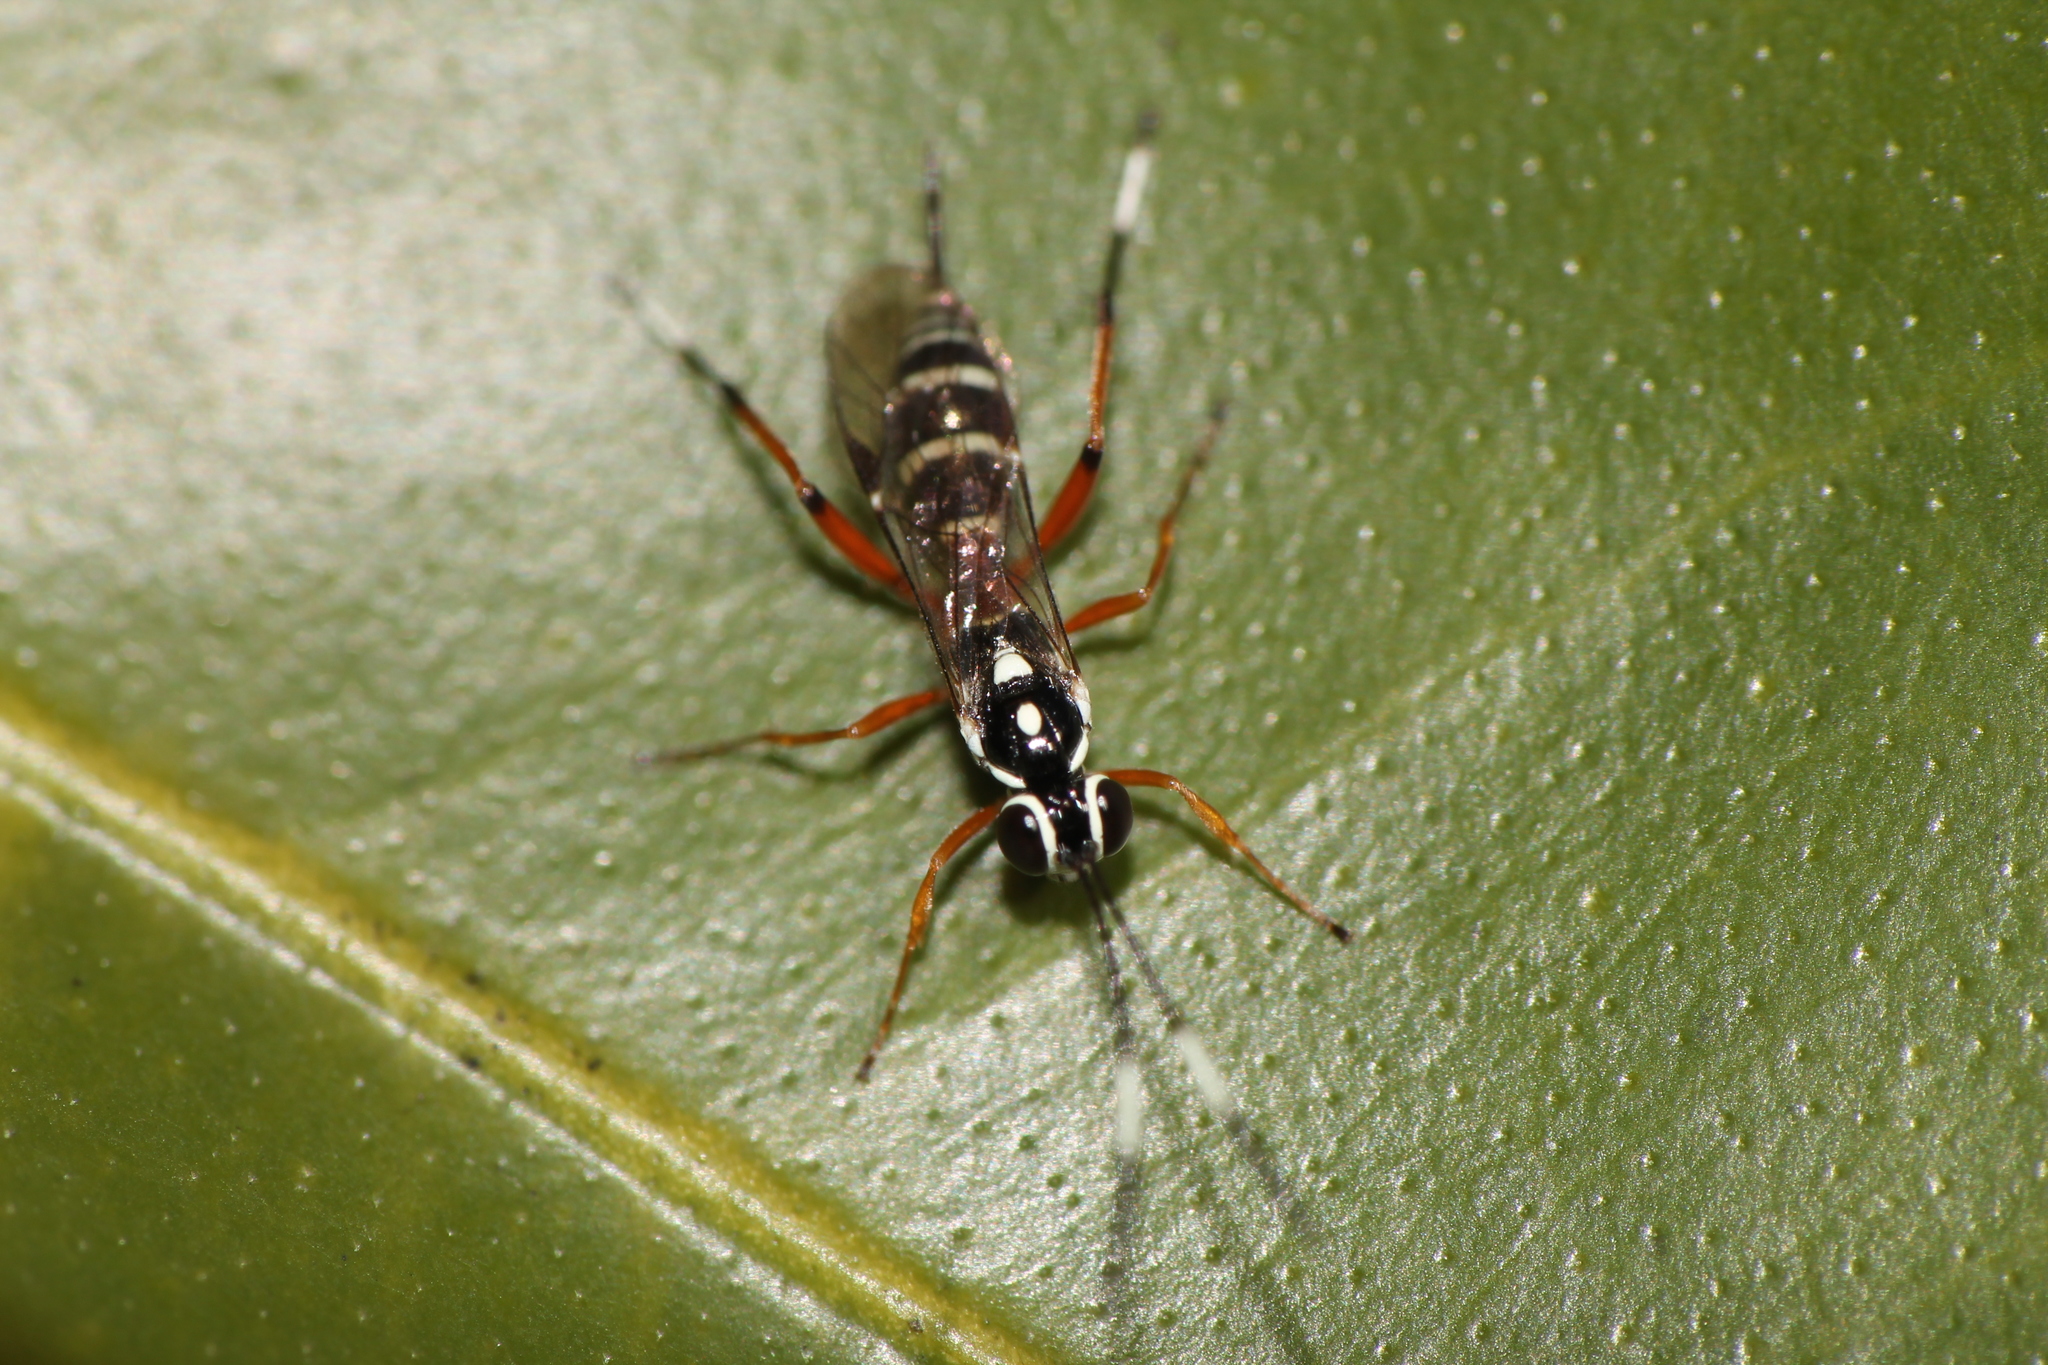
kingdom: Animalia
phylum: Arthropoda
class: Insecta
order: Hymenoptera
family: Ichneumonidae
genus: Glabridorsum
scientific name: Glabridorsum stokesii
